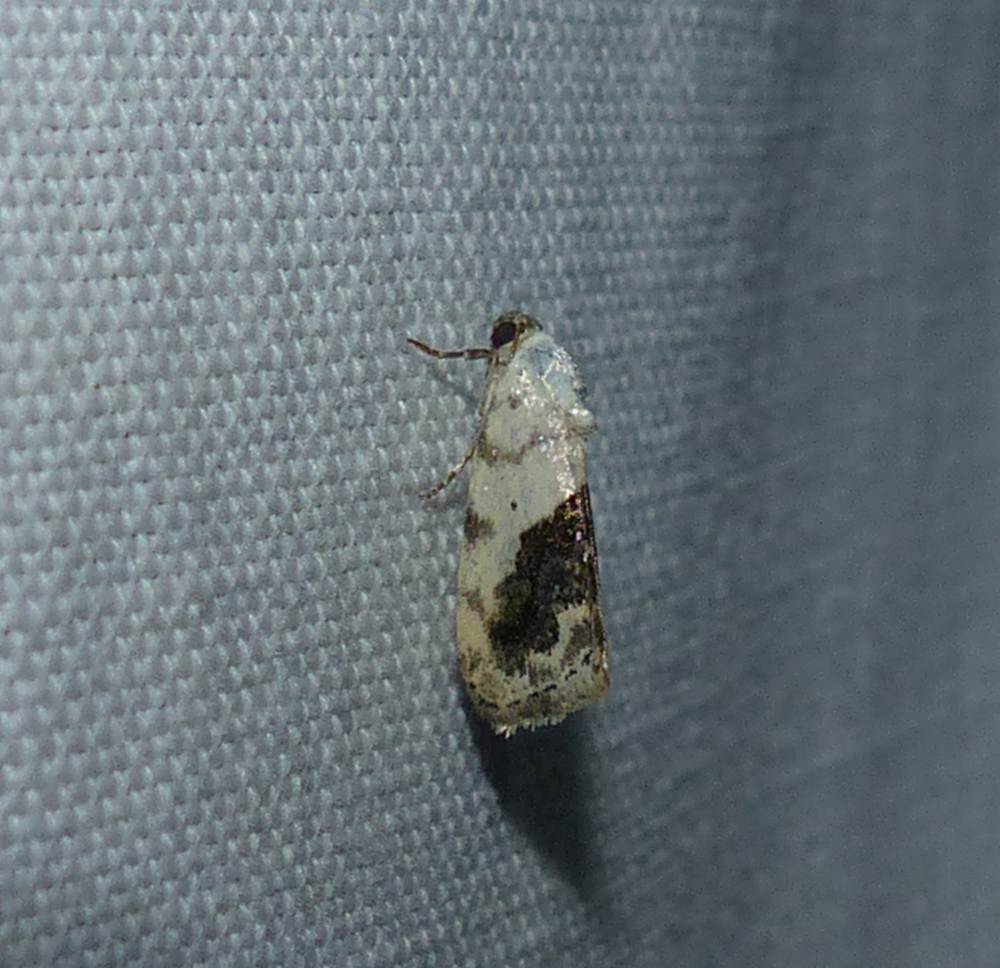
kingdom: Animalia
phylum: Arthropoda
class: Insecta
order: Lepidoptera
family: Noctuidae
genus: Acontia
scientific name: Acontia erastrioides
